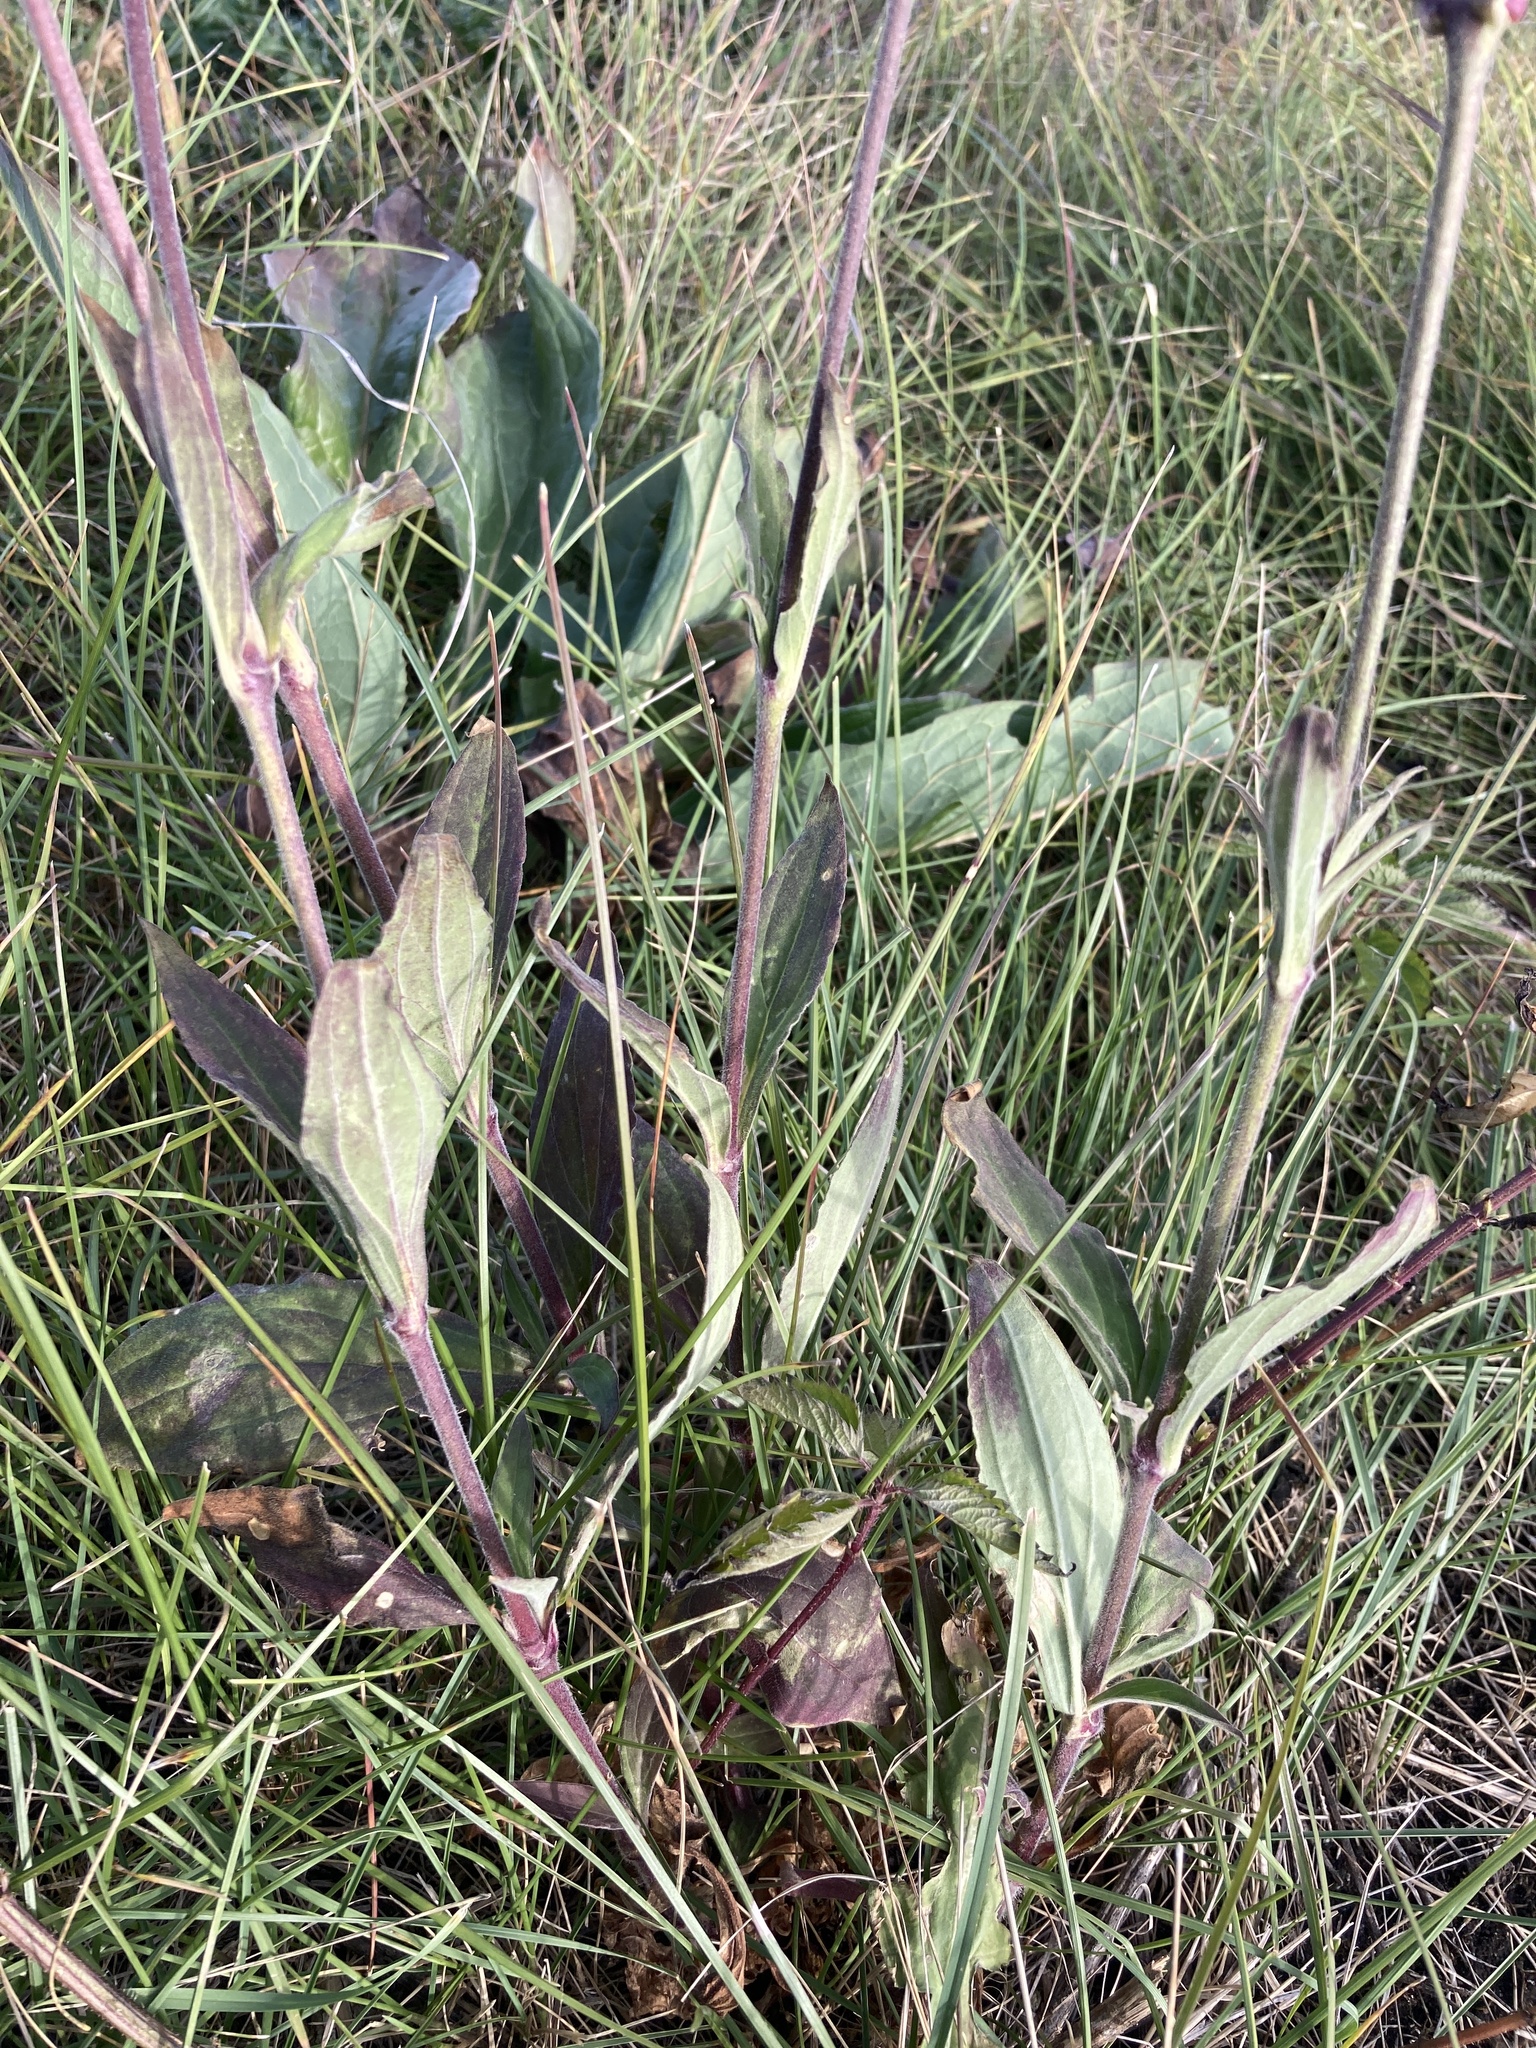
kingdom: Plantae
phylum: Tracheophyta
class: Magnoliopsida
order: Caryophyllales
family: Caryophyllaceae
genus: Silene
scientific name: Silene latifolia
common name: White campion
